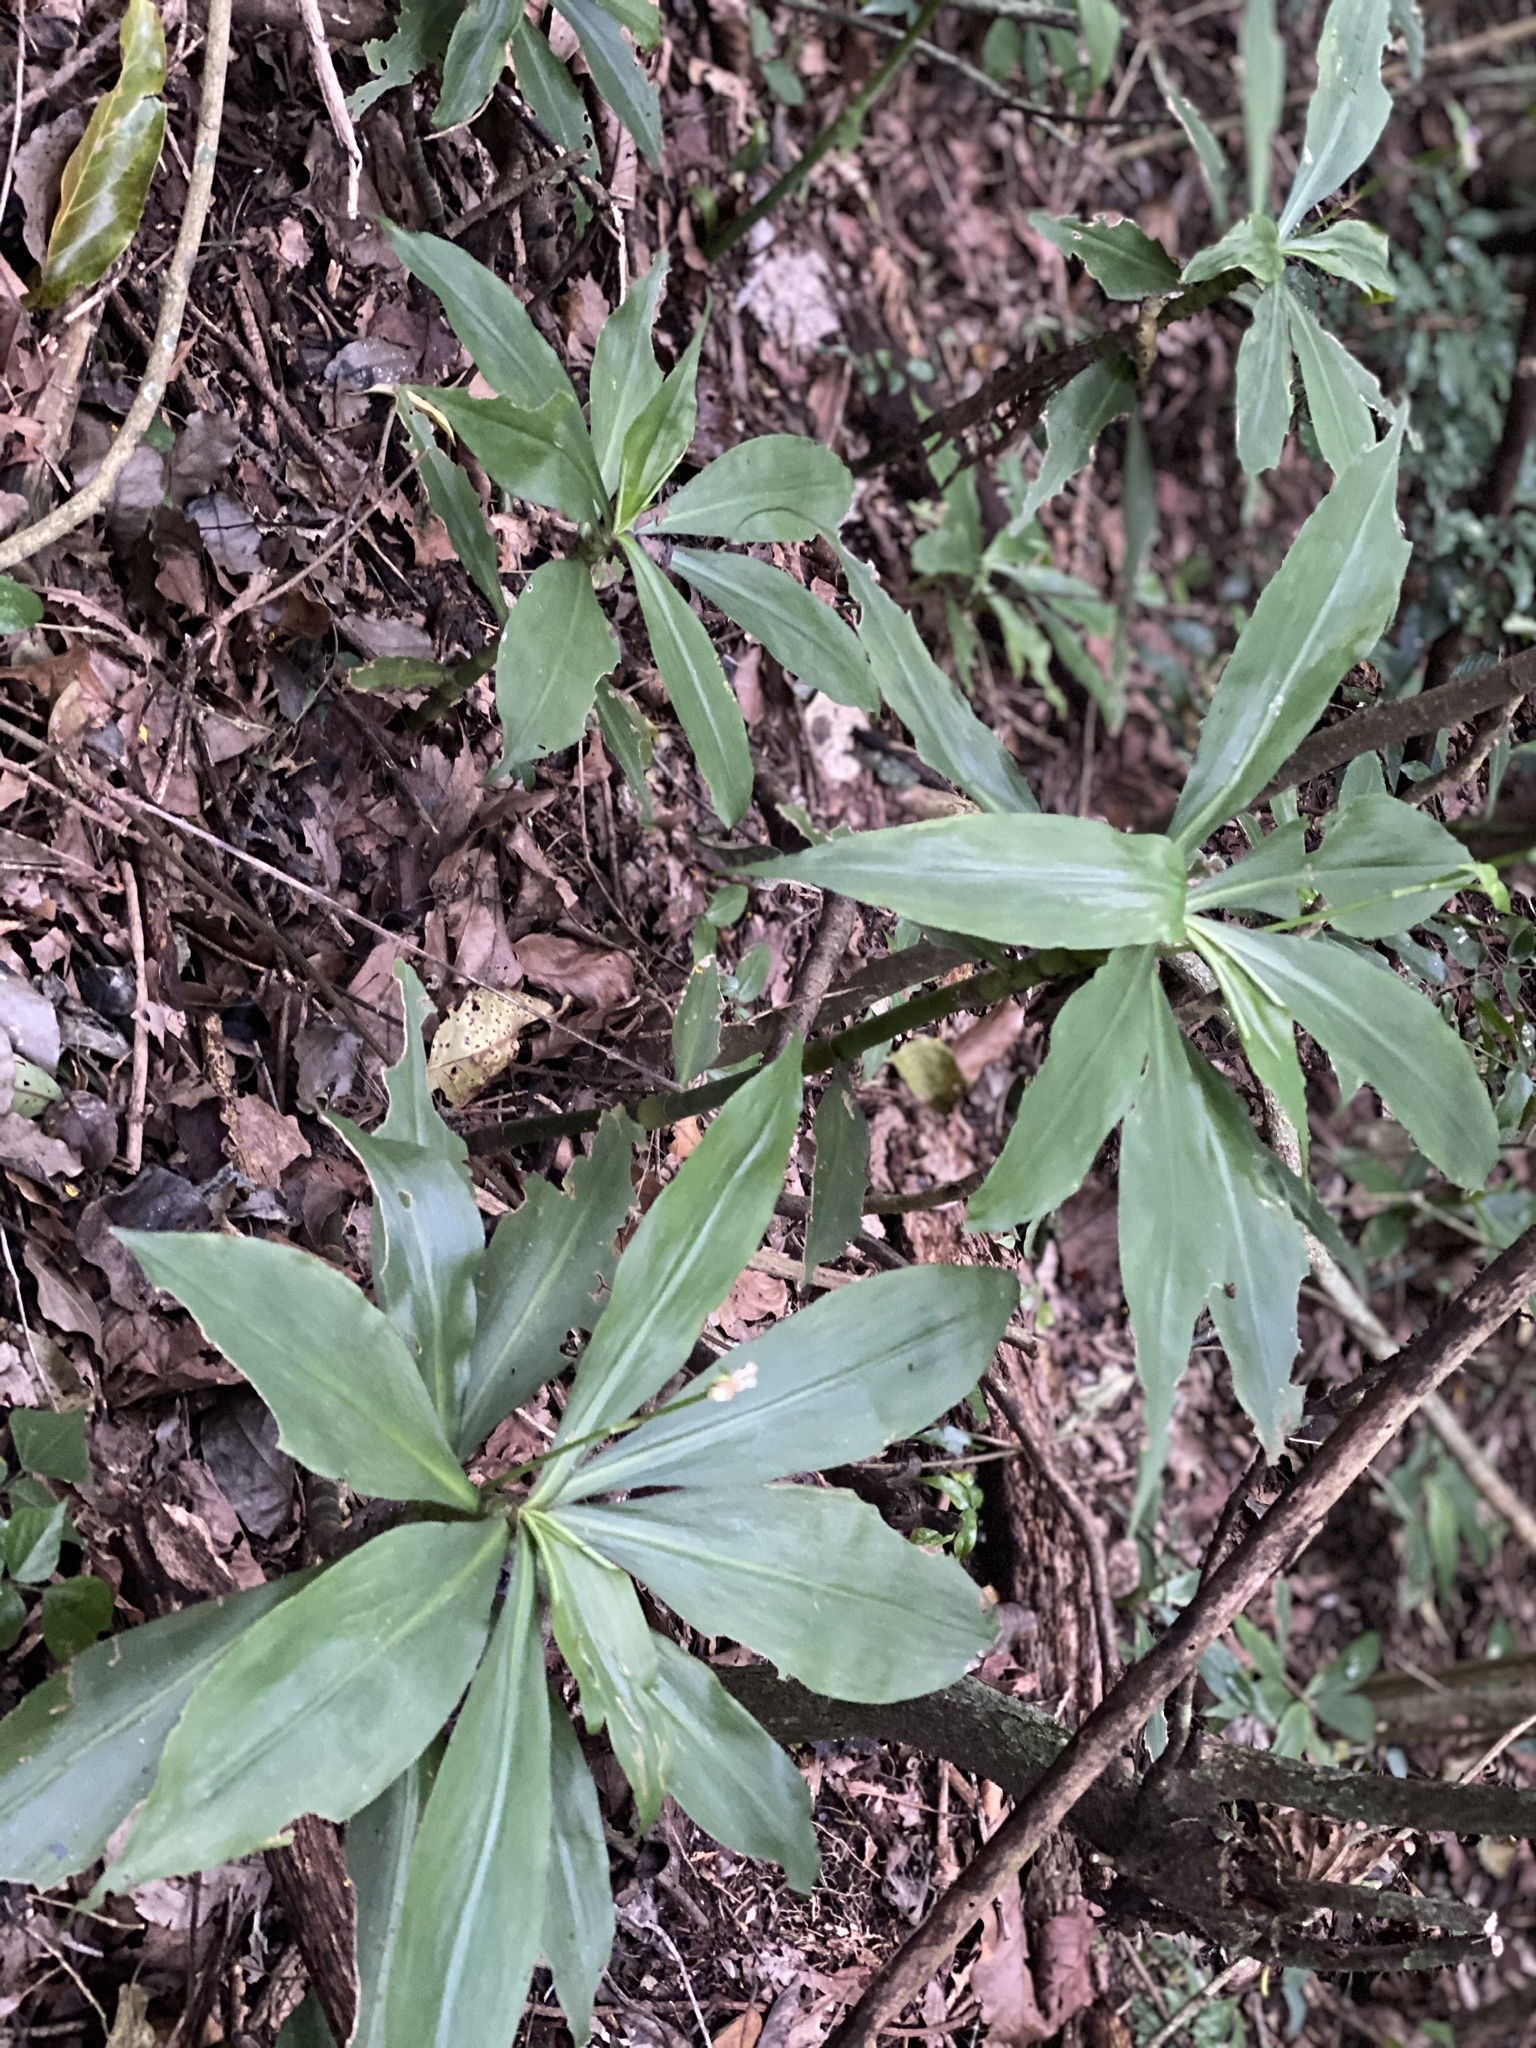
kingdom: Plantae
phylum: Tracheophyta
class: Liliopsida
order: Commelinales
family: Commelinaceae
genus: Tradescantia
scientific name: Tradescantia zanonia
